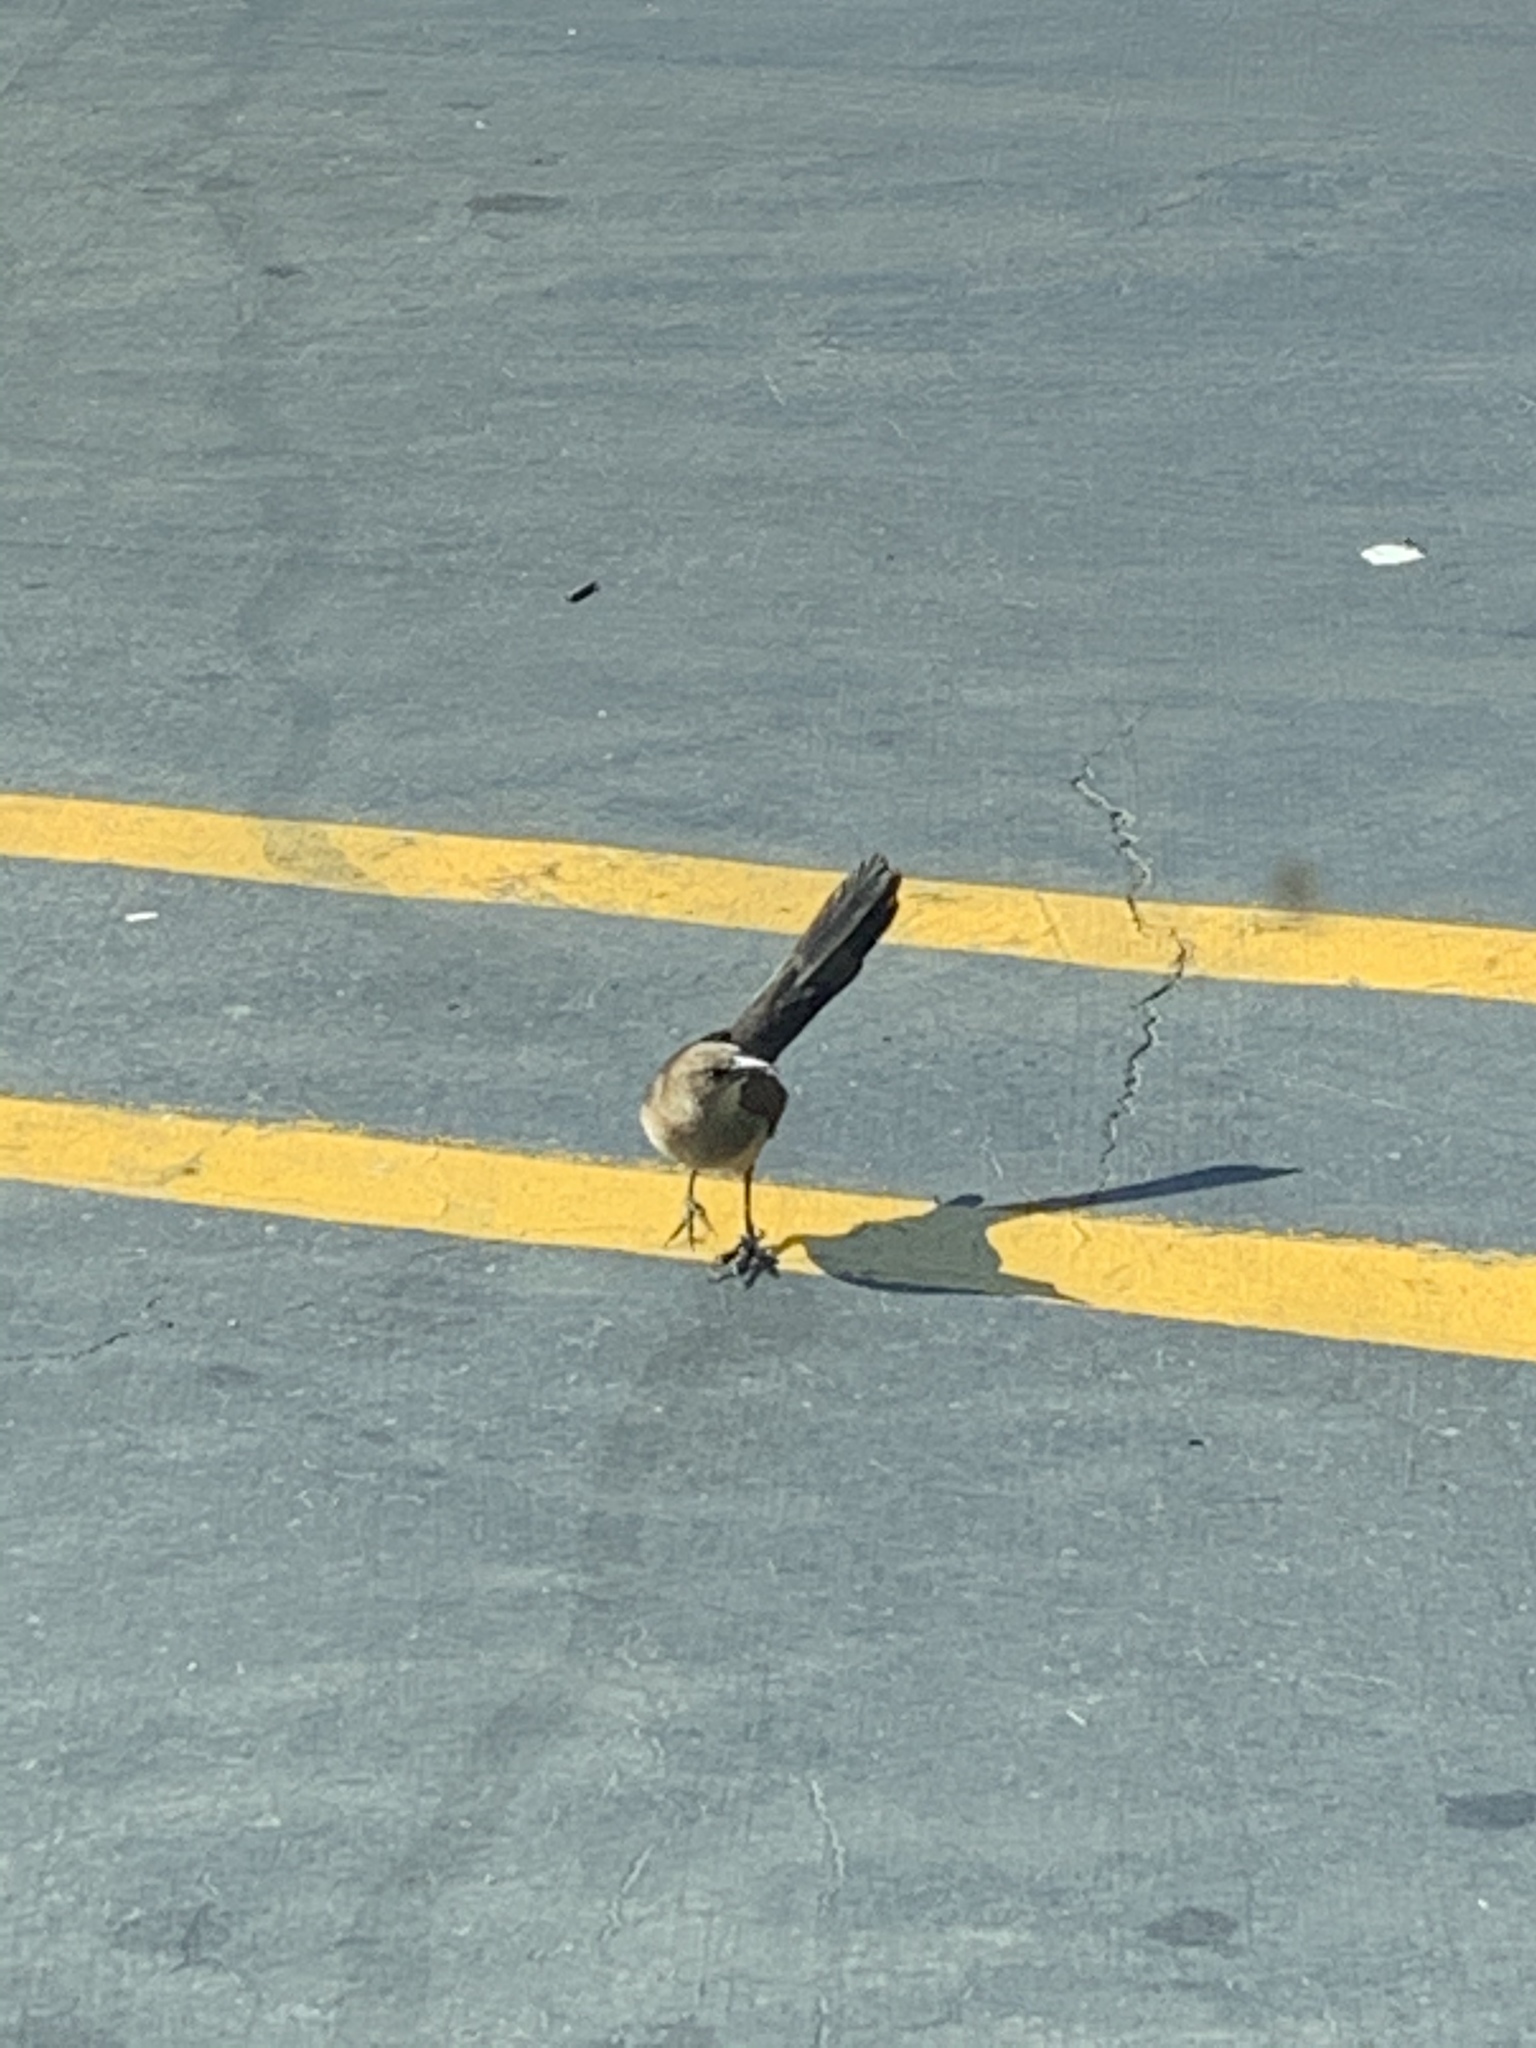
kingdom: Animalia
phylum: Chordata
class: Aves
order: Passeriformes
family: Icteridae
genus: Quiscalus
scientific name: Quiscalus mexicanus
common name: Great-tailed grackle
